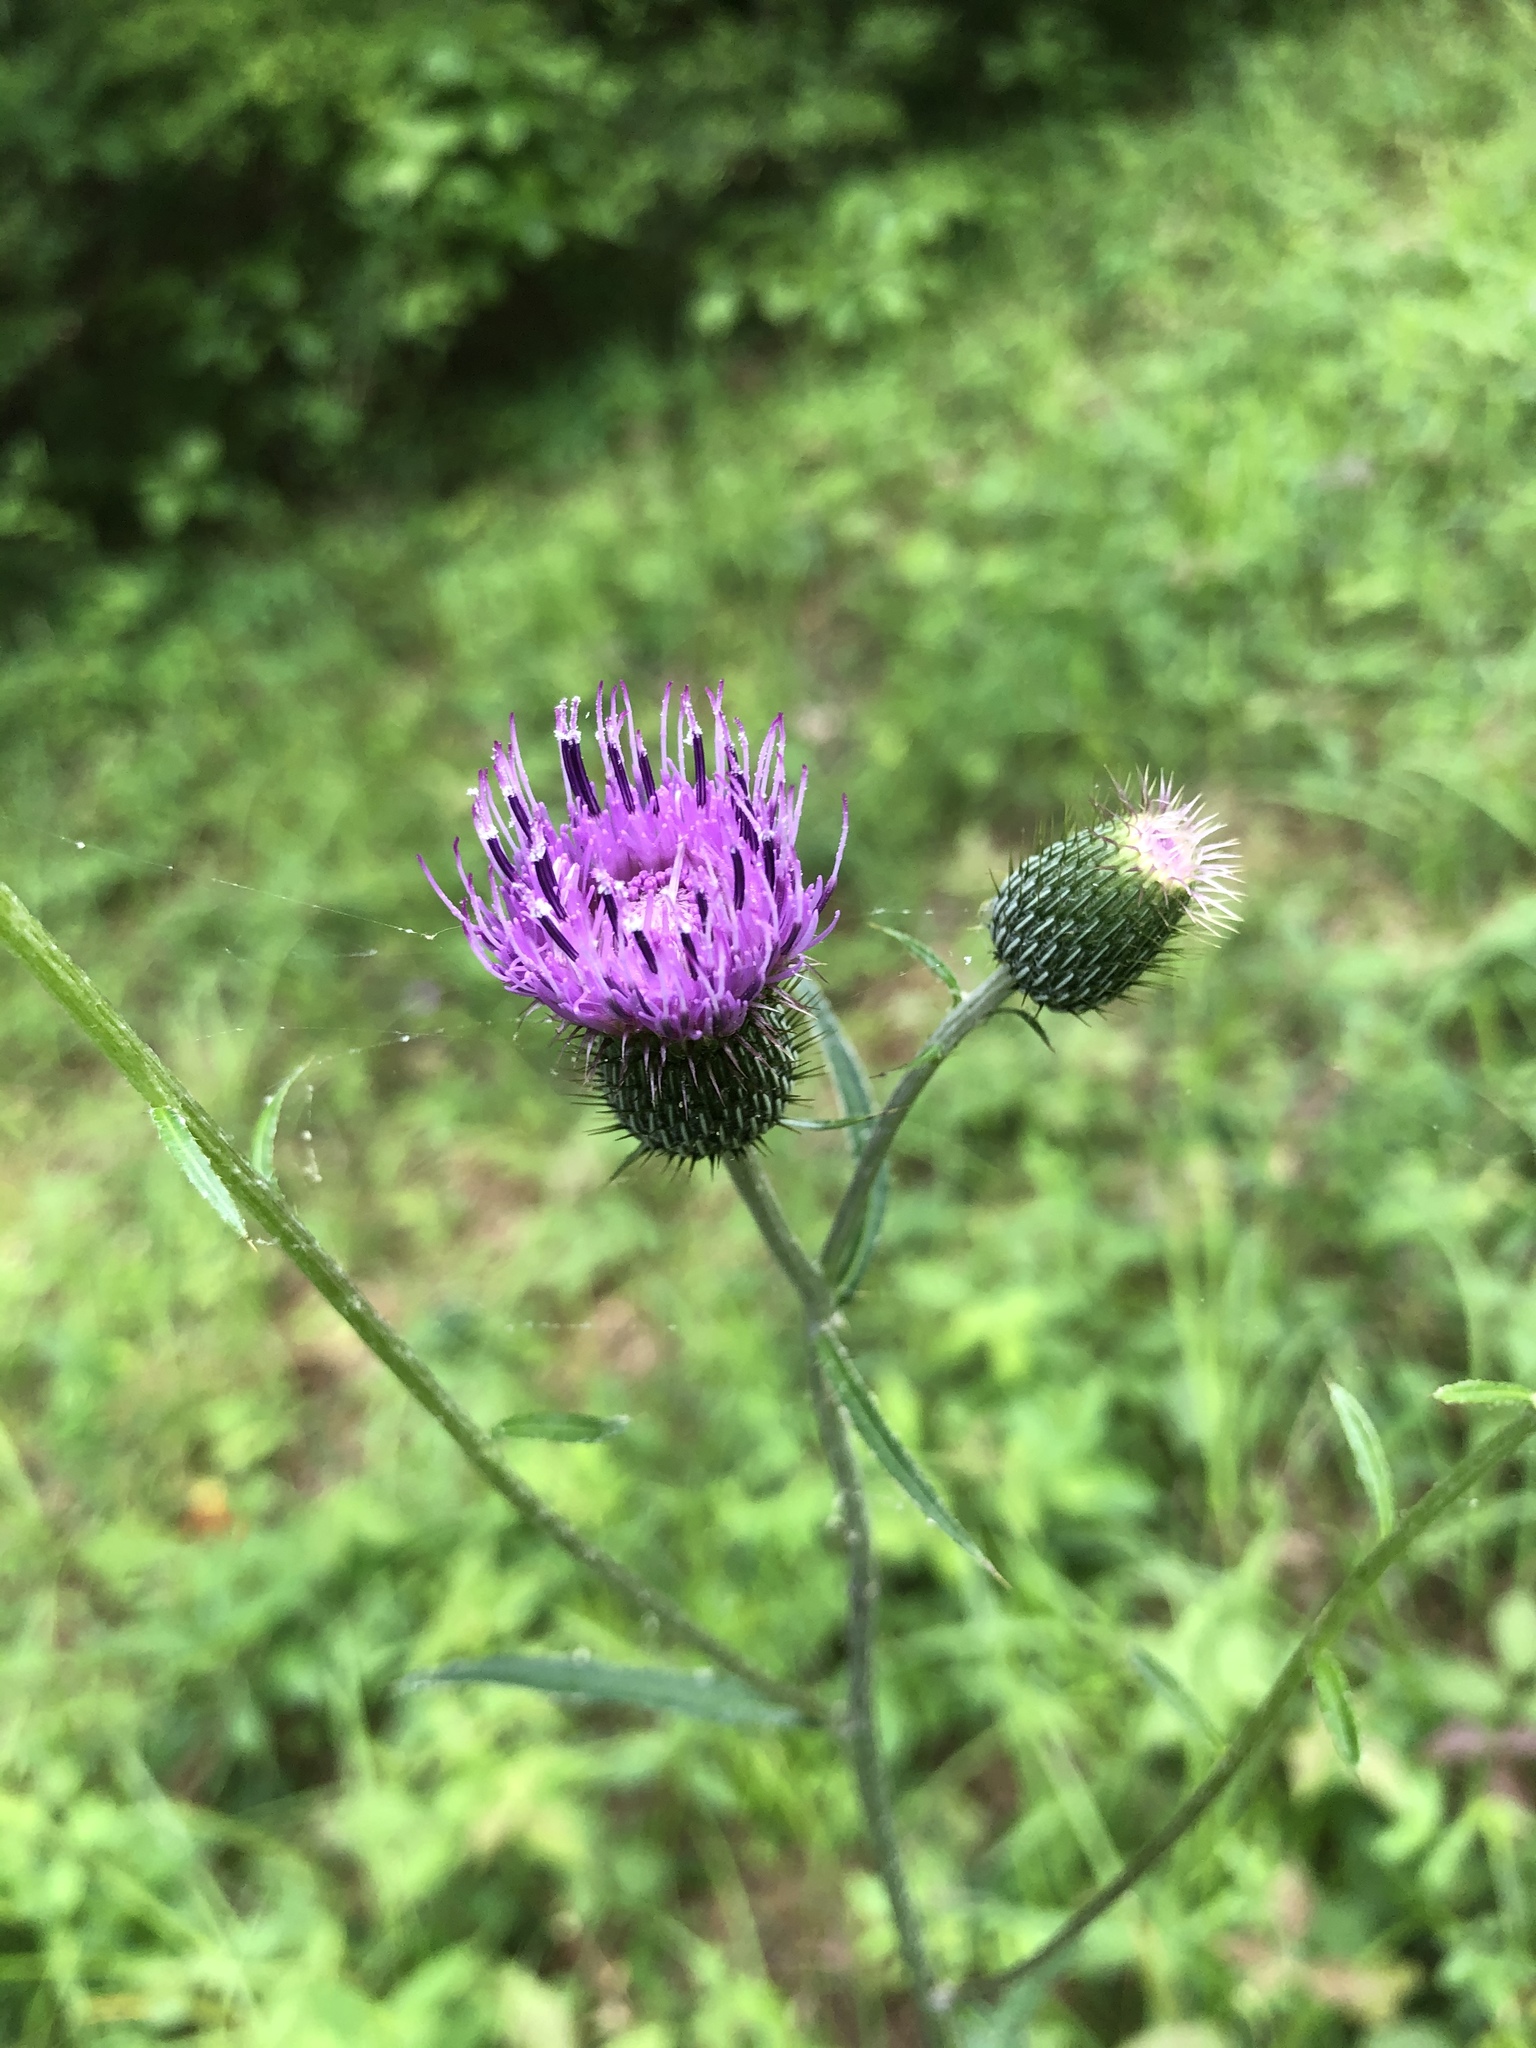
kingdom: Plantae
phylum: Tracheophyta
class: Magnoliopsida
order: Asterales
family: Asteraceae
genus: Cirsium
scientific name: Cirsium carolinianum
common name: Carolina thistle
